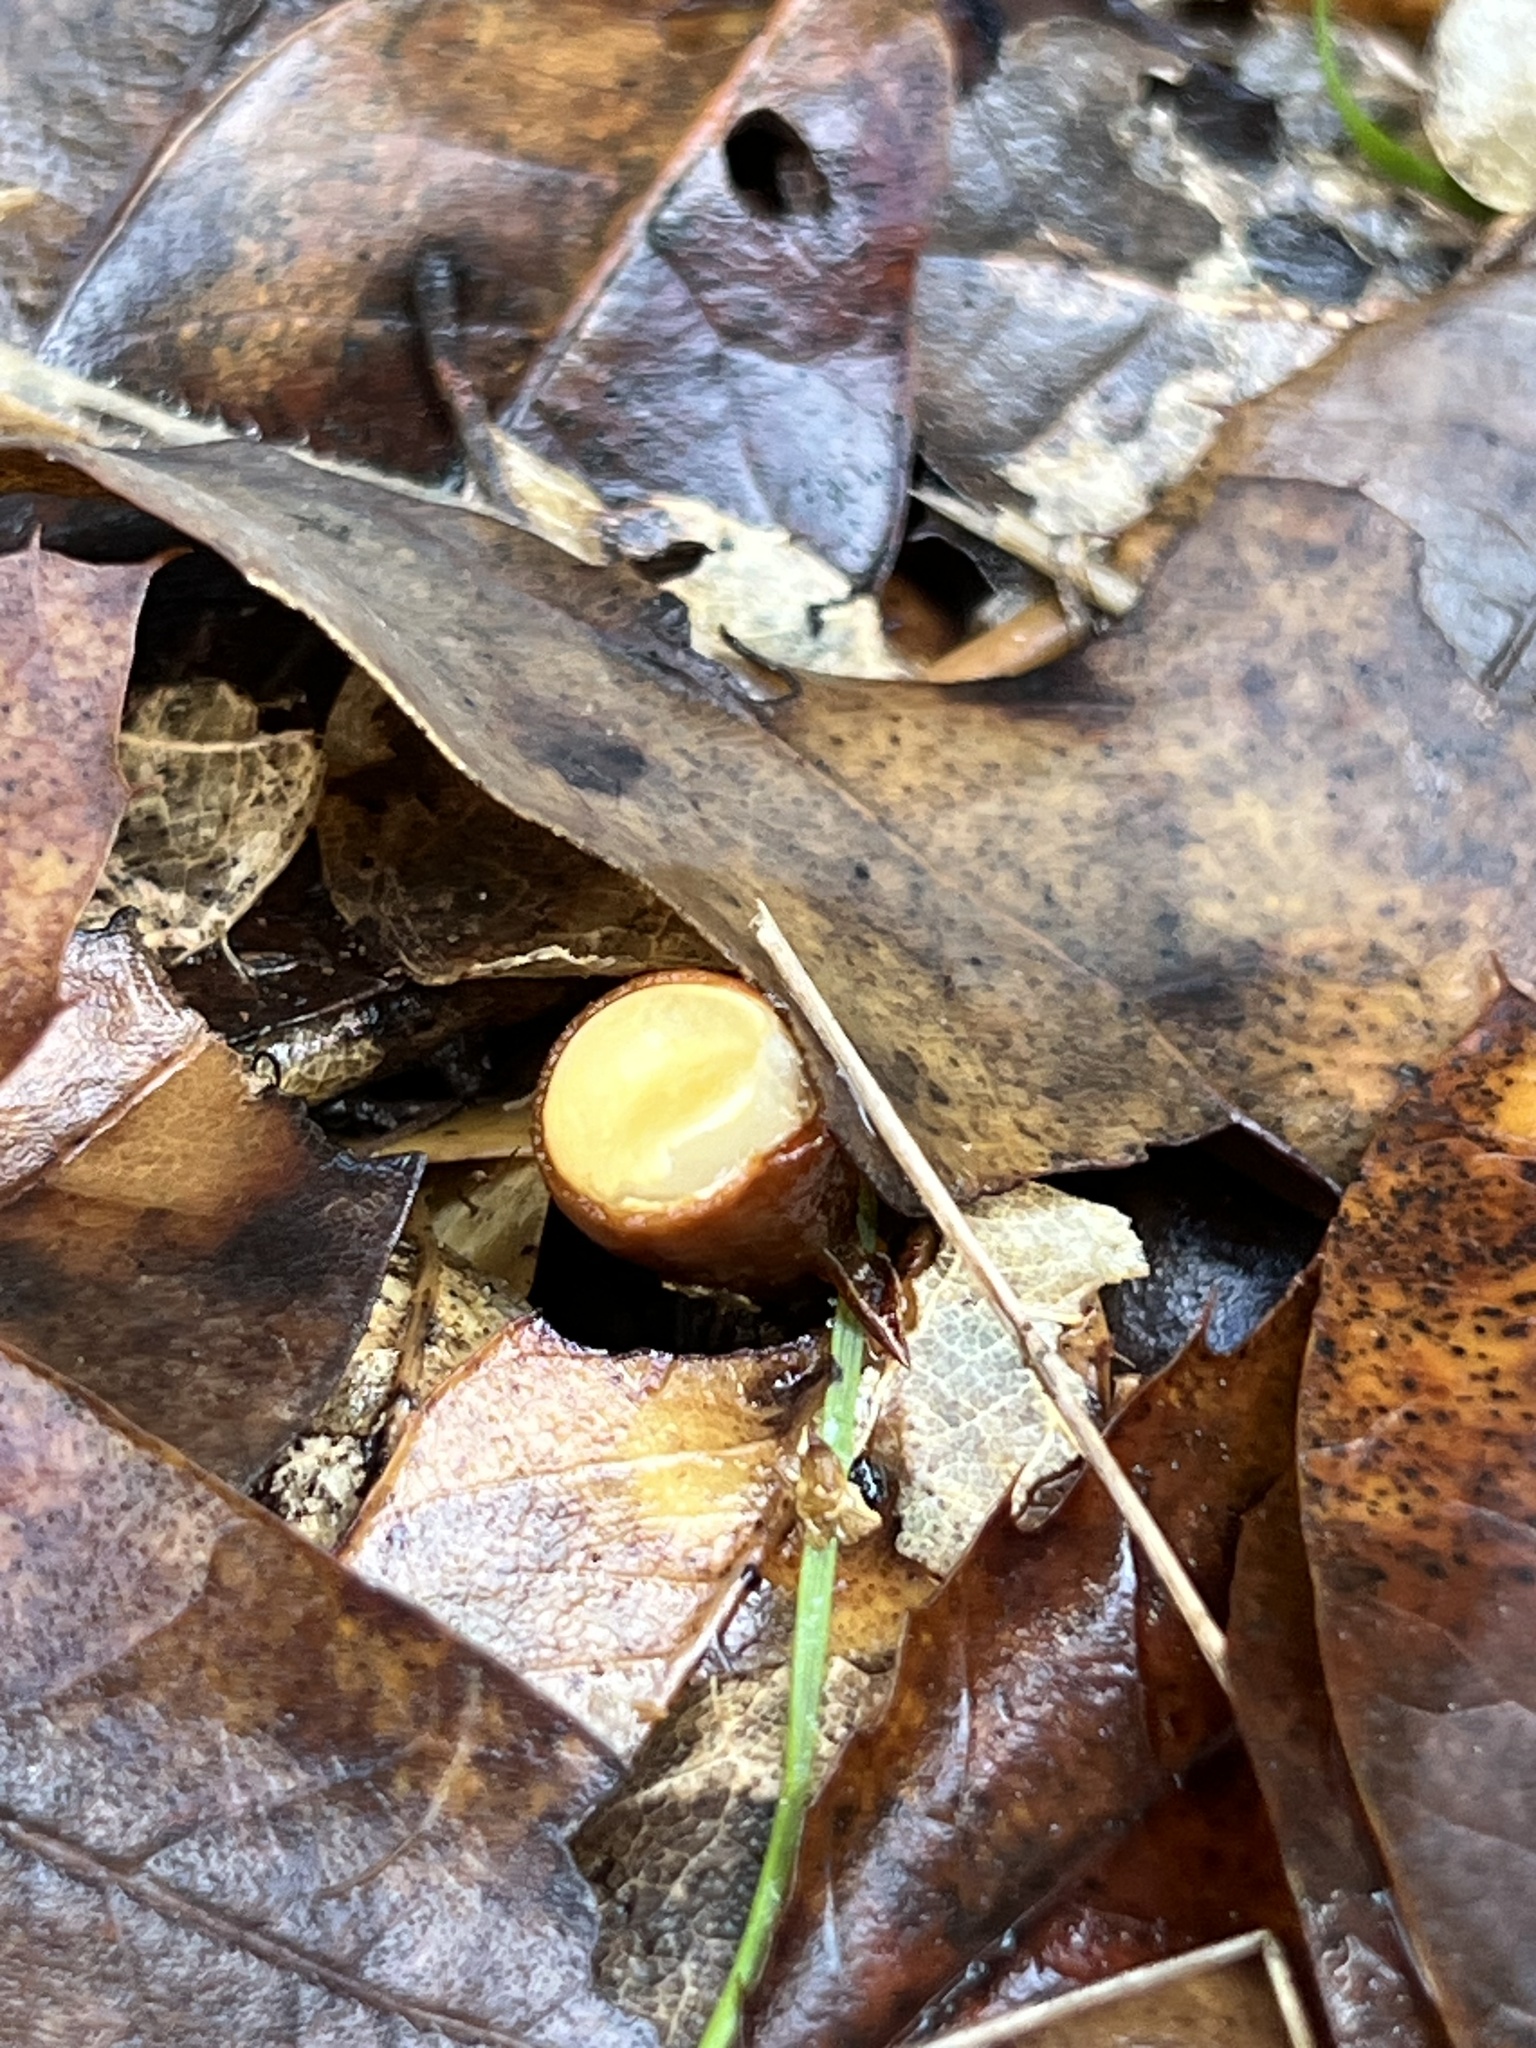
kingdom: Fungi
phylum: Basidiomycota
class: Agaricomycetes
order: Agaricales
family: Nidulariaceae
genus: Crucibulum
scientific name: Crucibulum laeve
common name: Common bird's nest
